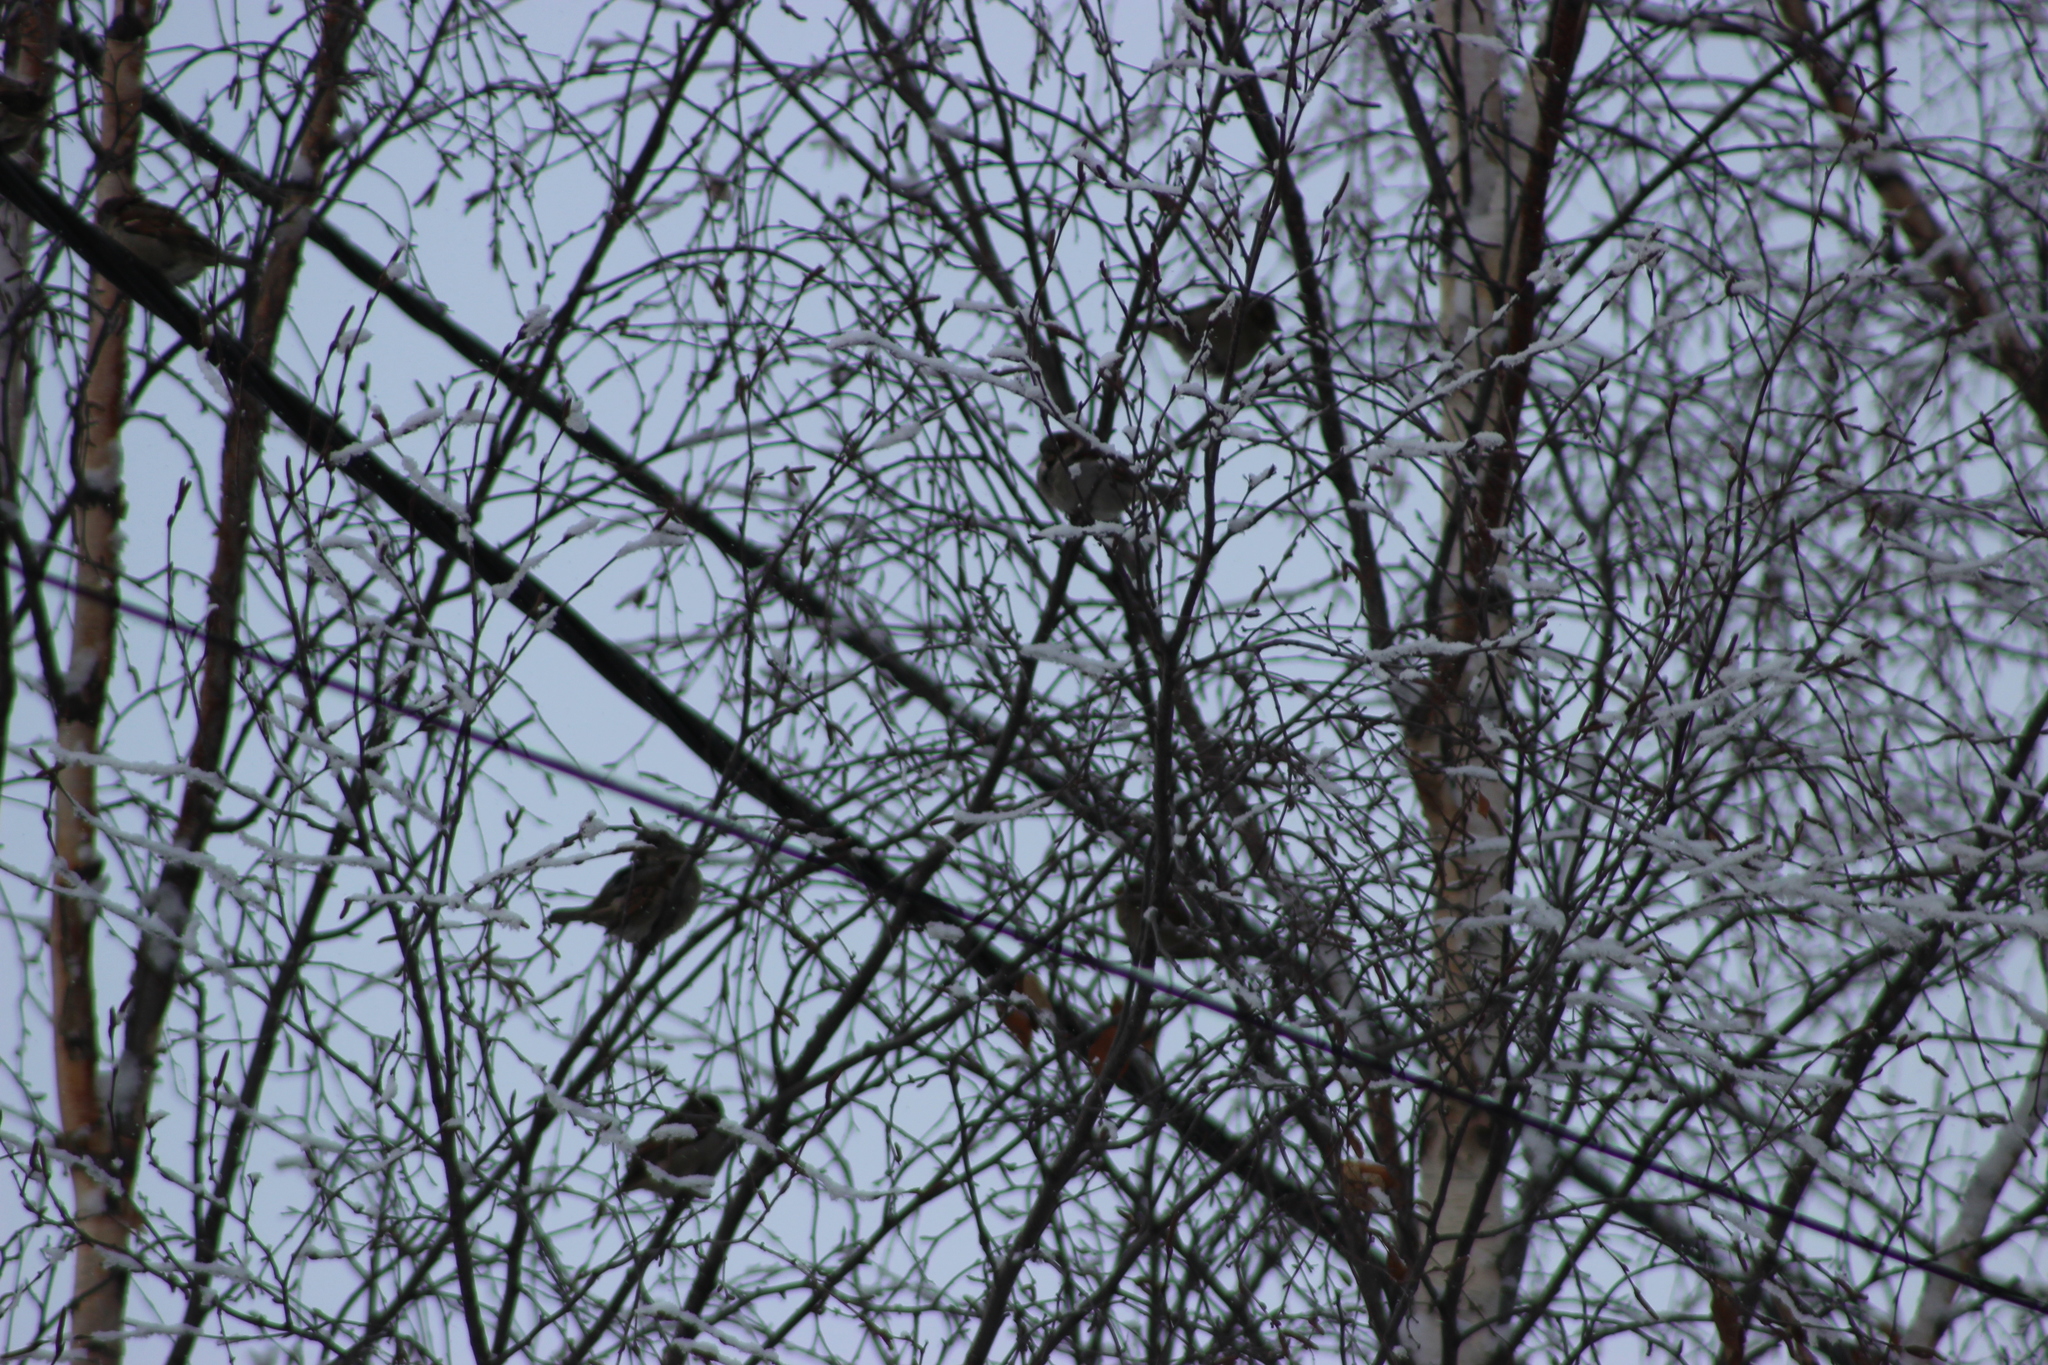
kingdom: Animalia
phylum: Chordata
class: Aves
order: Passeriformes
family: Passeridae
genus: Passer
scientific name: Passer domesticus
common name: House sparrow
